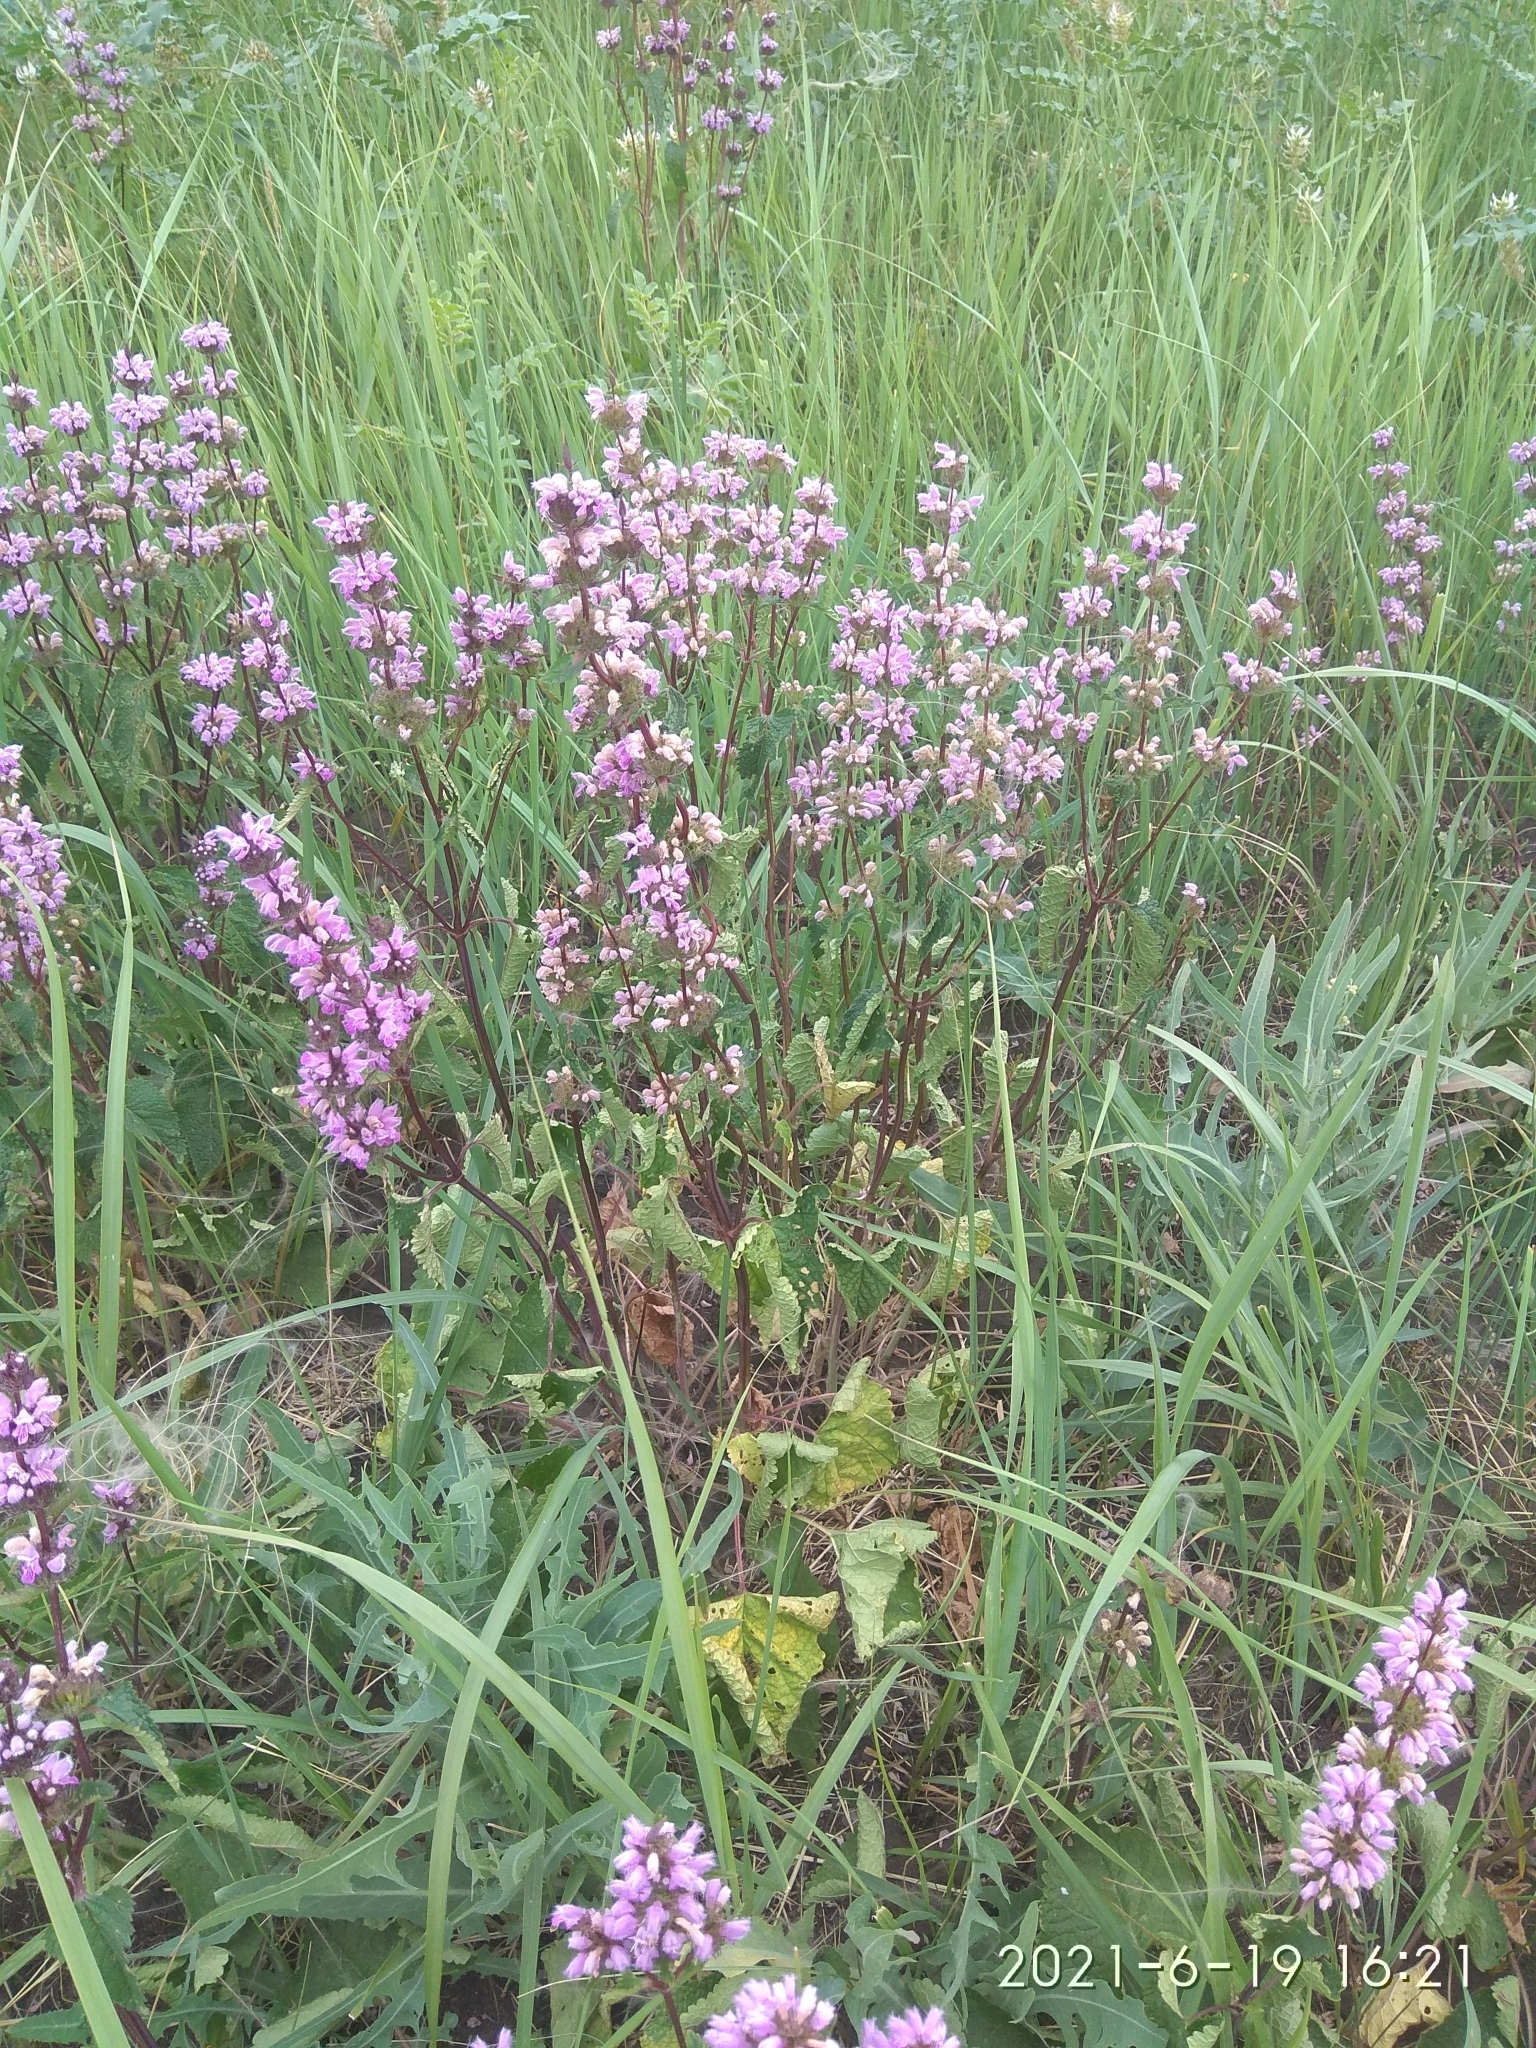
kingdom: Plantae
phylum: Tracheophyta
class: Magnoliopsida
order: Lamiales
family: Lamiaceae
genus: Phlomoides
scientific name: Phlomoides tuberosa
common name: Tuberous jerusalem sage
